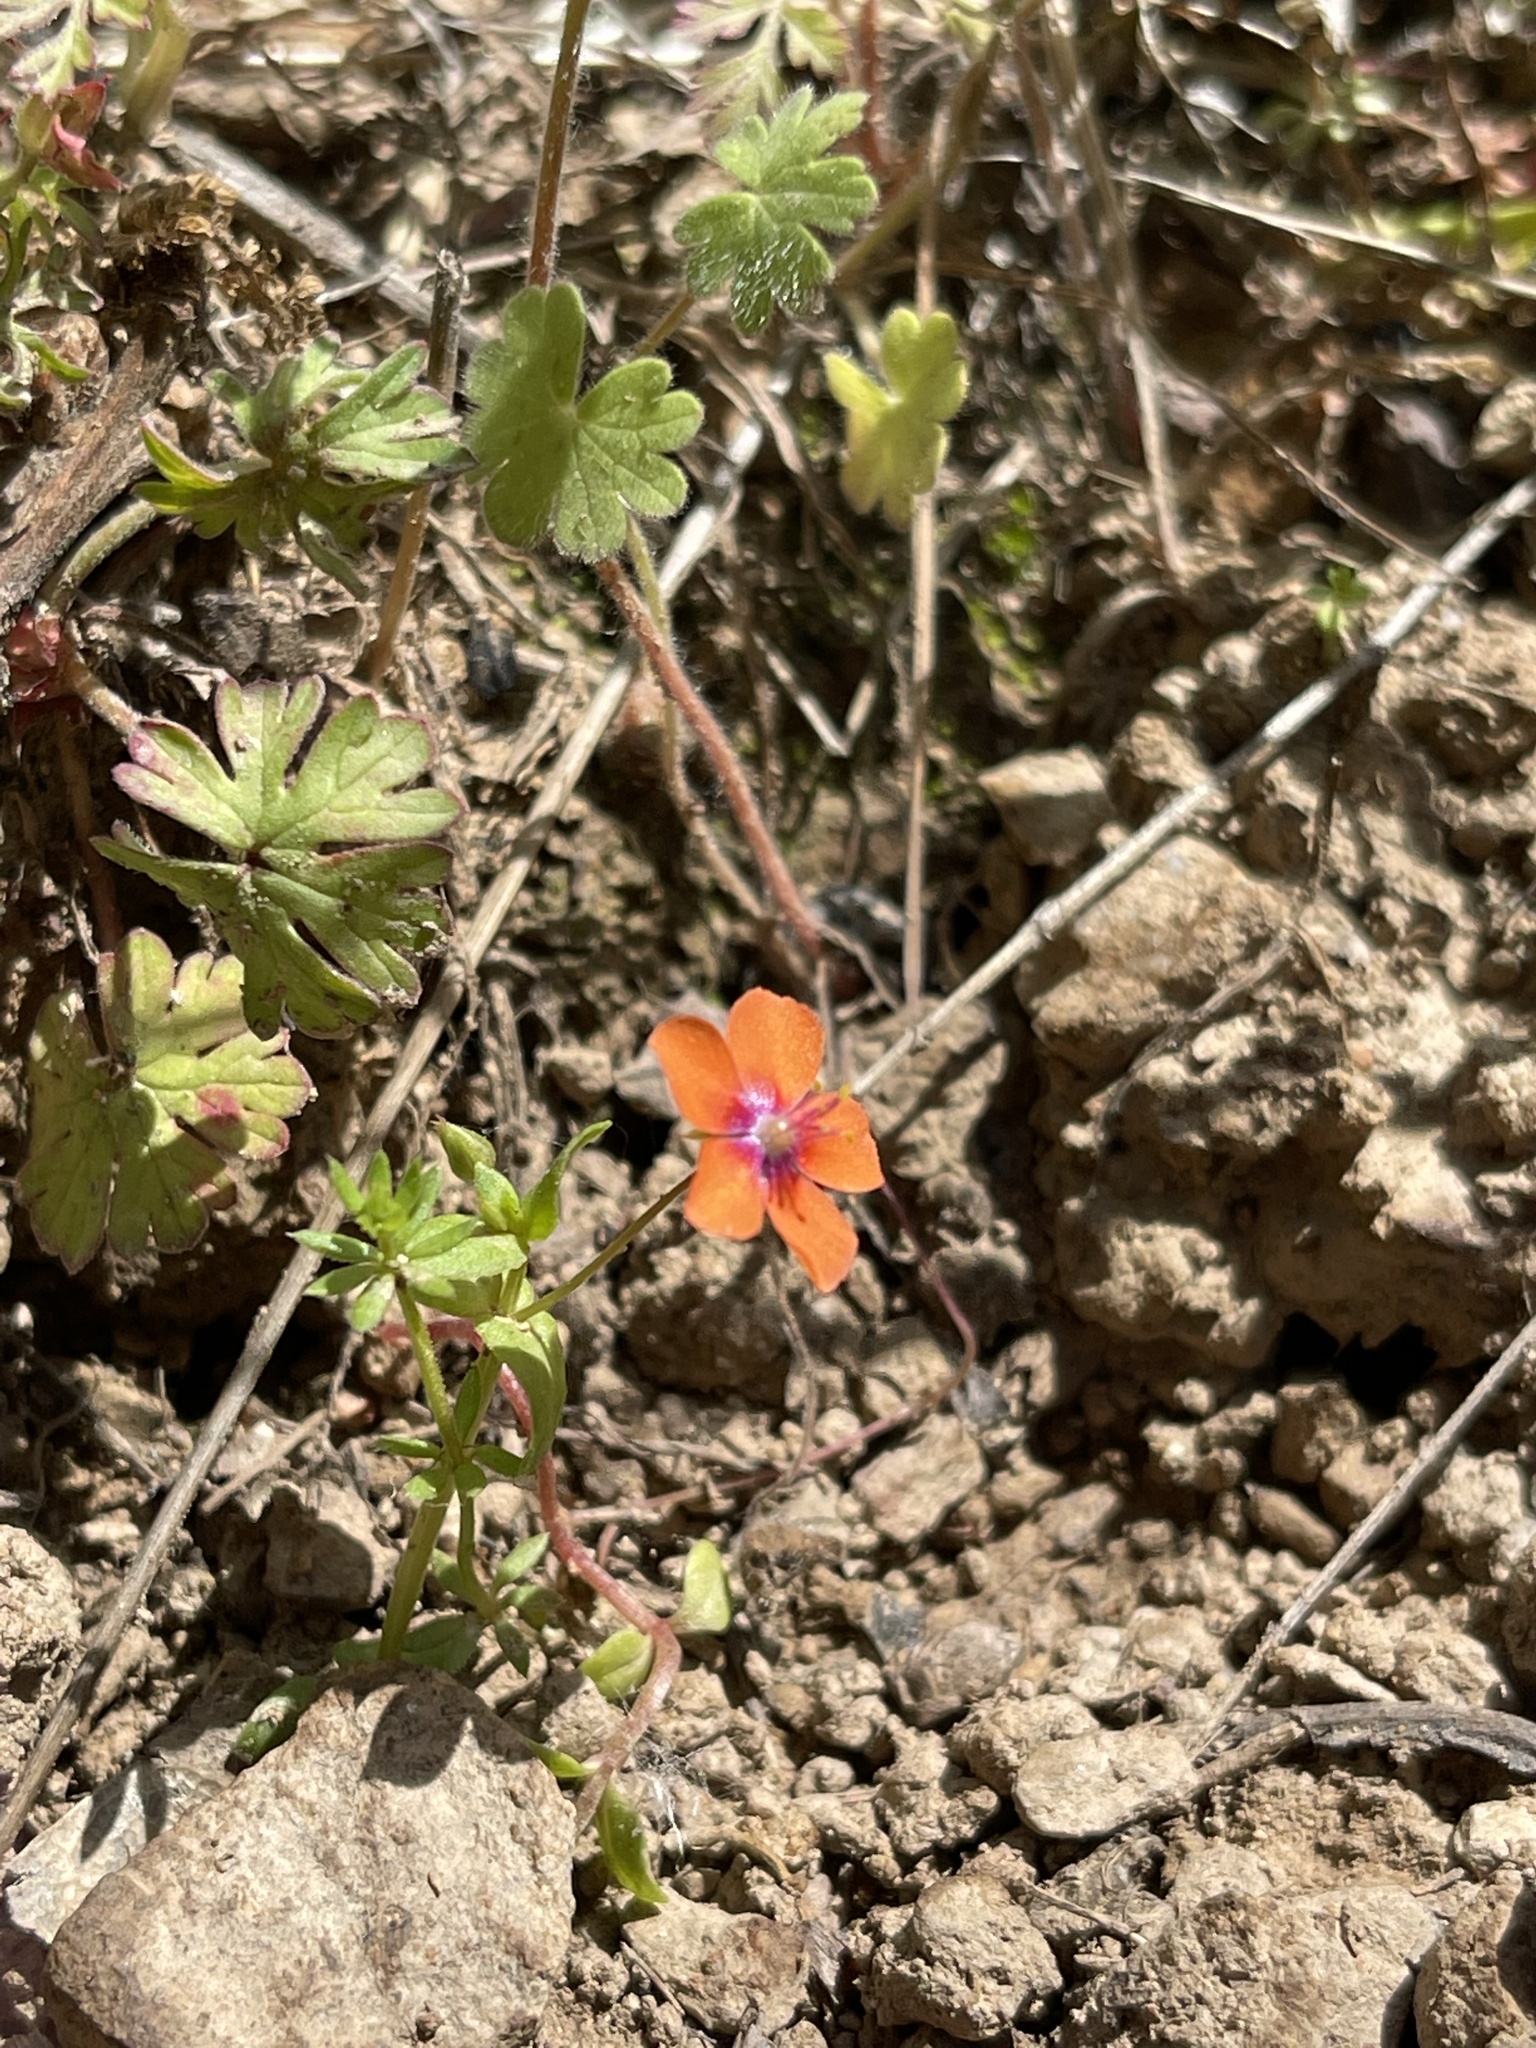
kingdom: Plantae
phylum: Tracheophyta
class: Magnoliopsida
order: Ericales
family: Primulaceae
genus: Lysimachia
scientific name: Lysimachia arvensis
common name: Scarlet pimpernel
